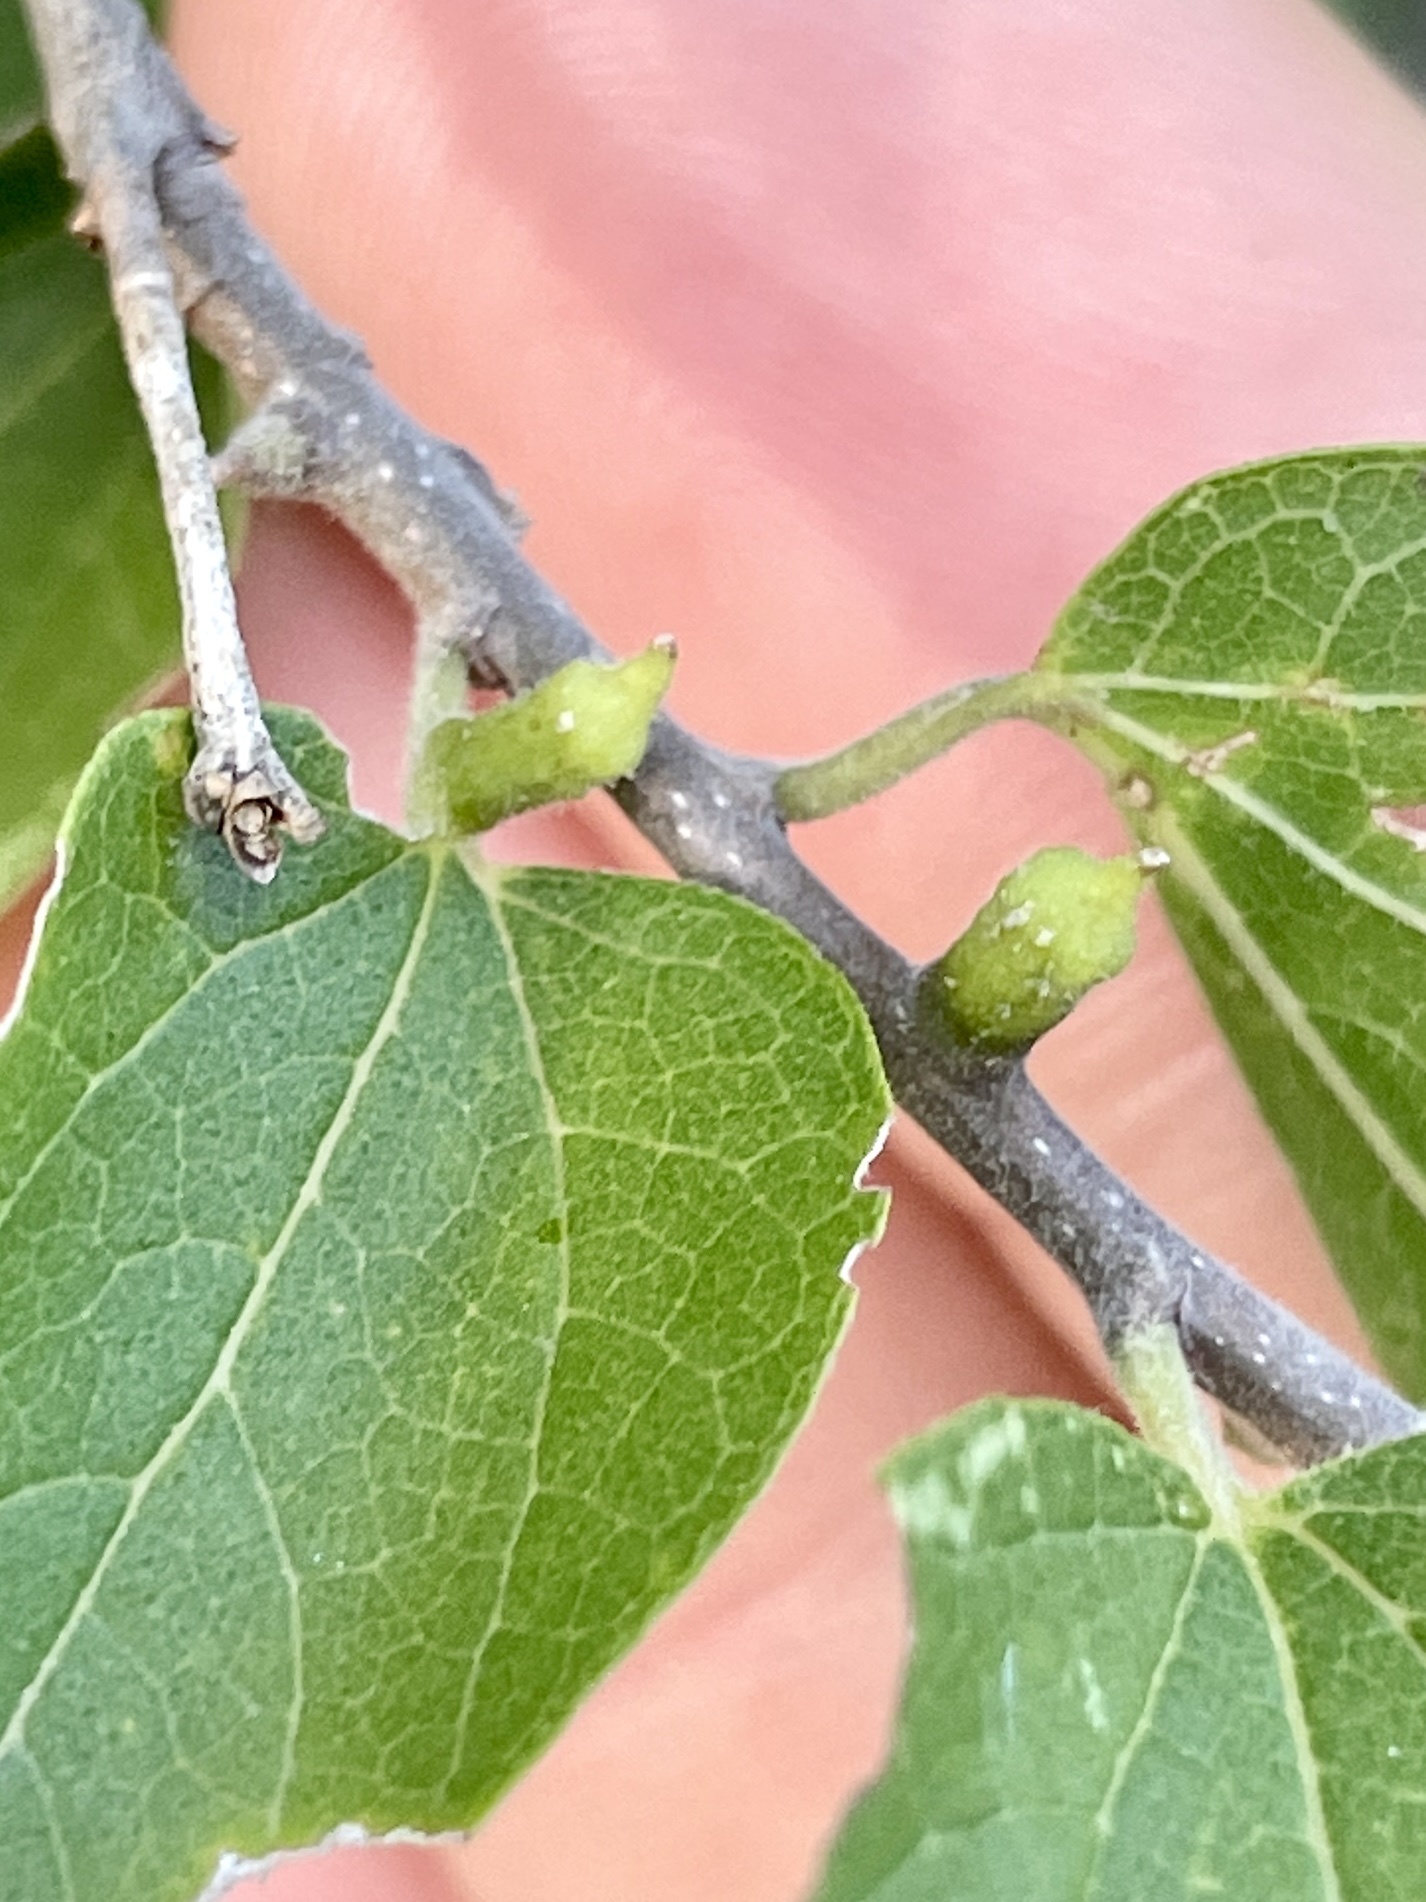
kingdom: Animalia
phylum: Arthropoda
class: Insecta
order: Diptera
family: Cecidomyiidae
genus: Celticecis
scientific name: Celticecis ramicola
